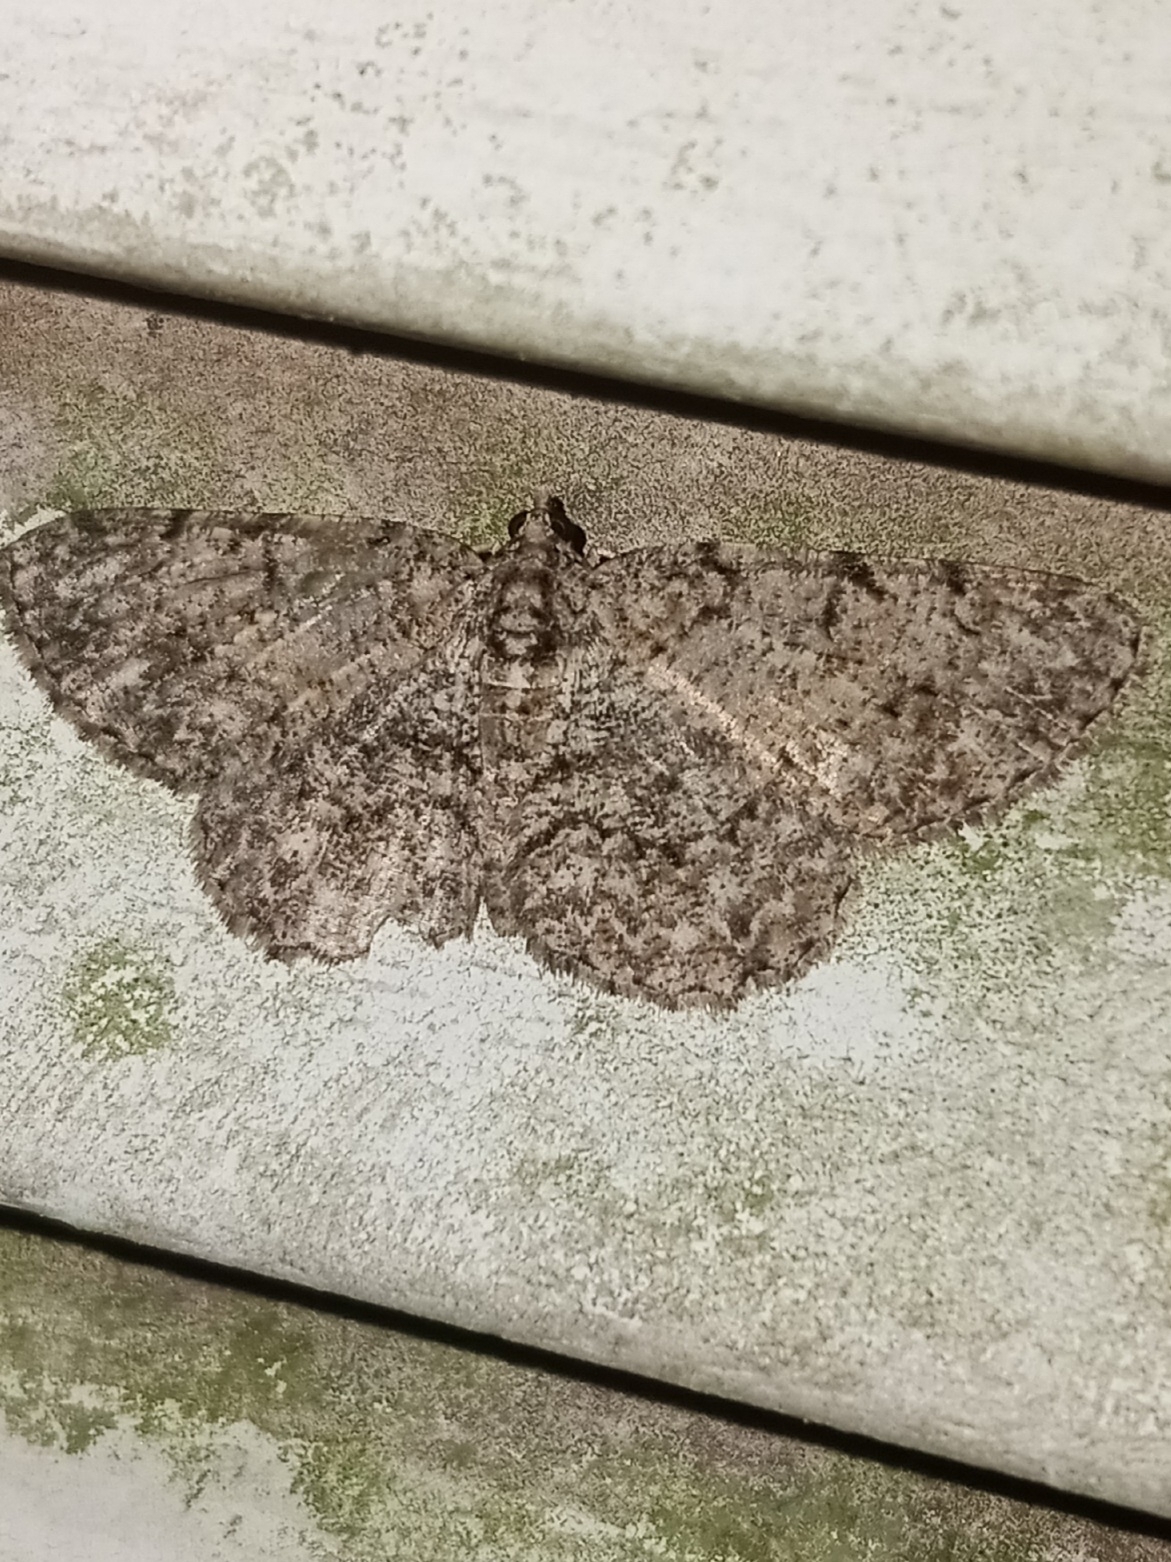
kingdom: Animalia
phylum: Arthropoda
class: Insecta
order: Lepidoptera
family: Geometridae
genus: Protoboarmia
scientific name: Protoboarmia porcelaria
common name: Porcelain gray
